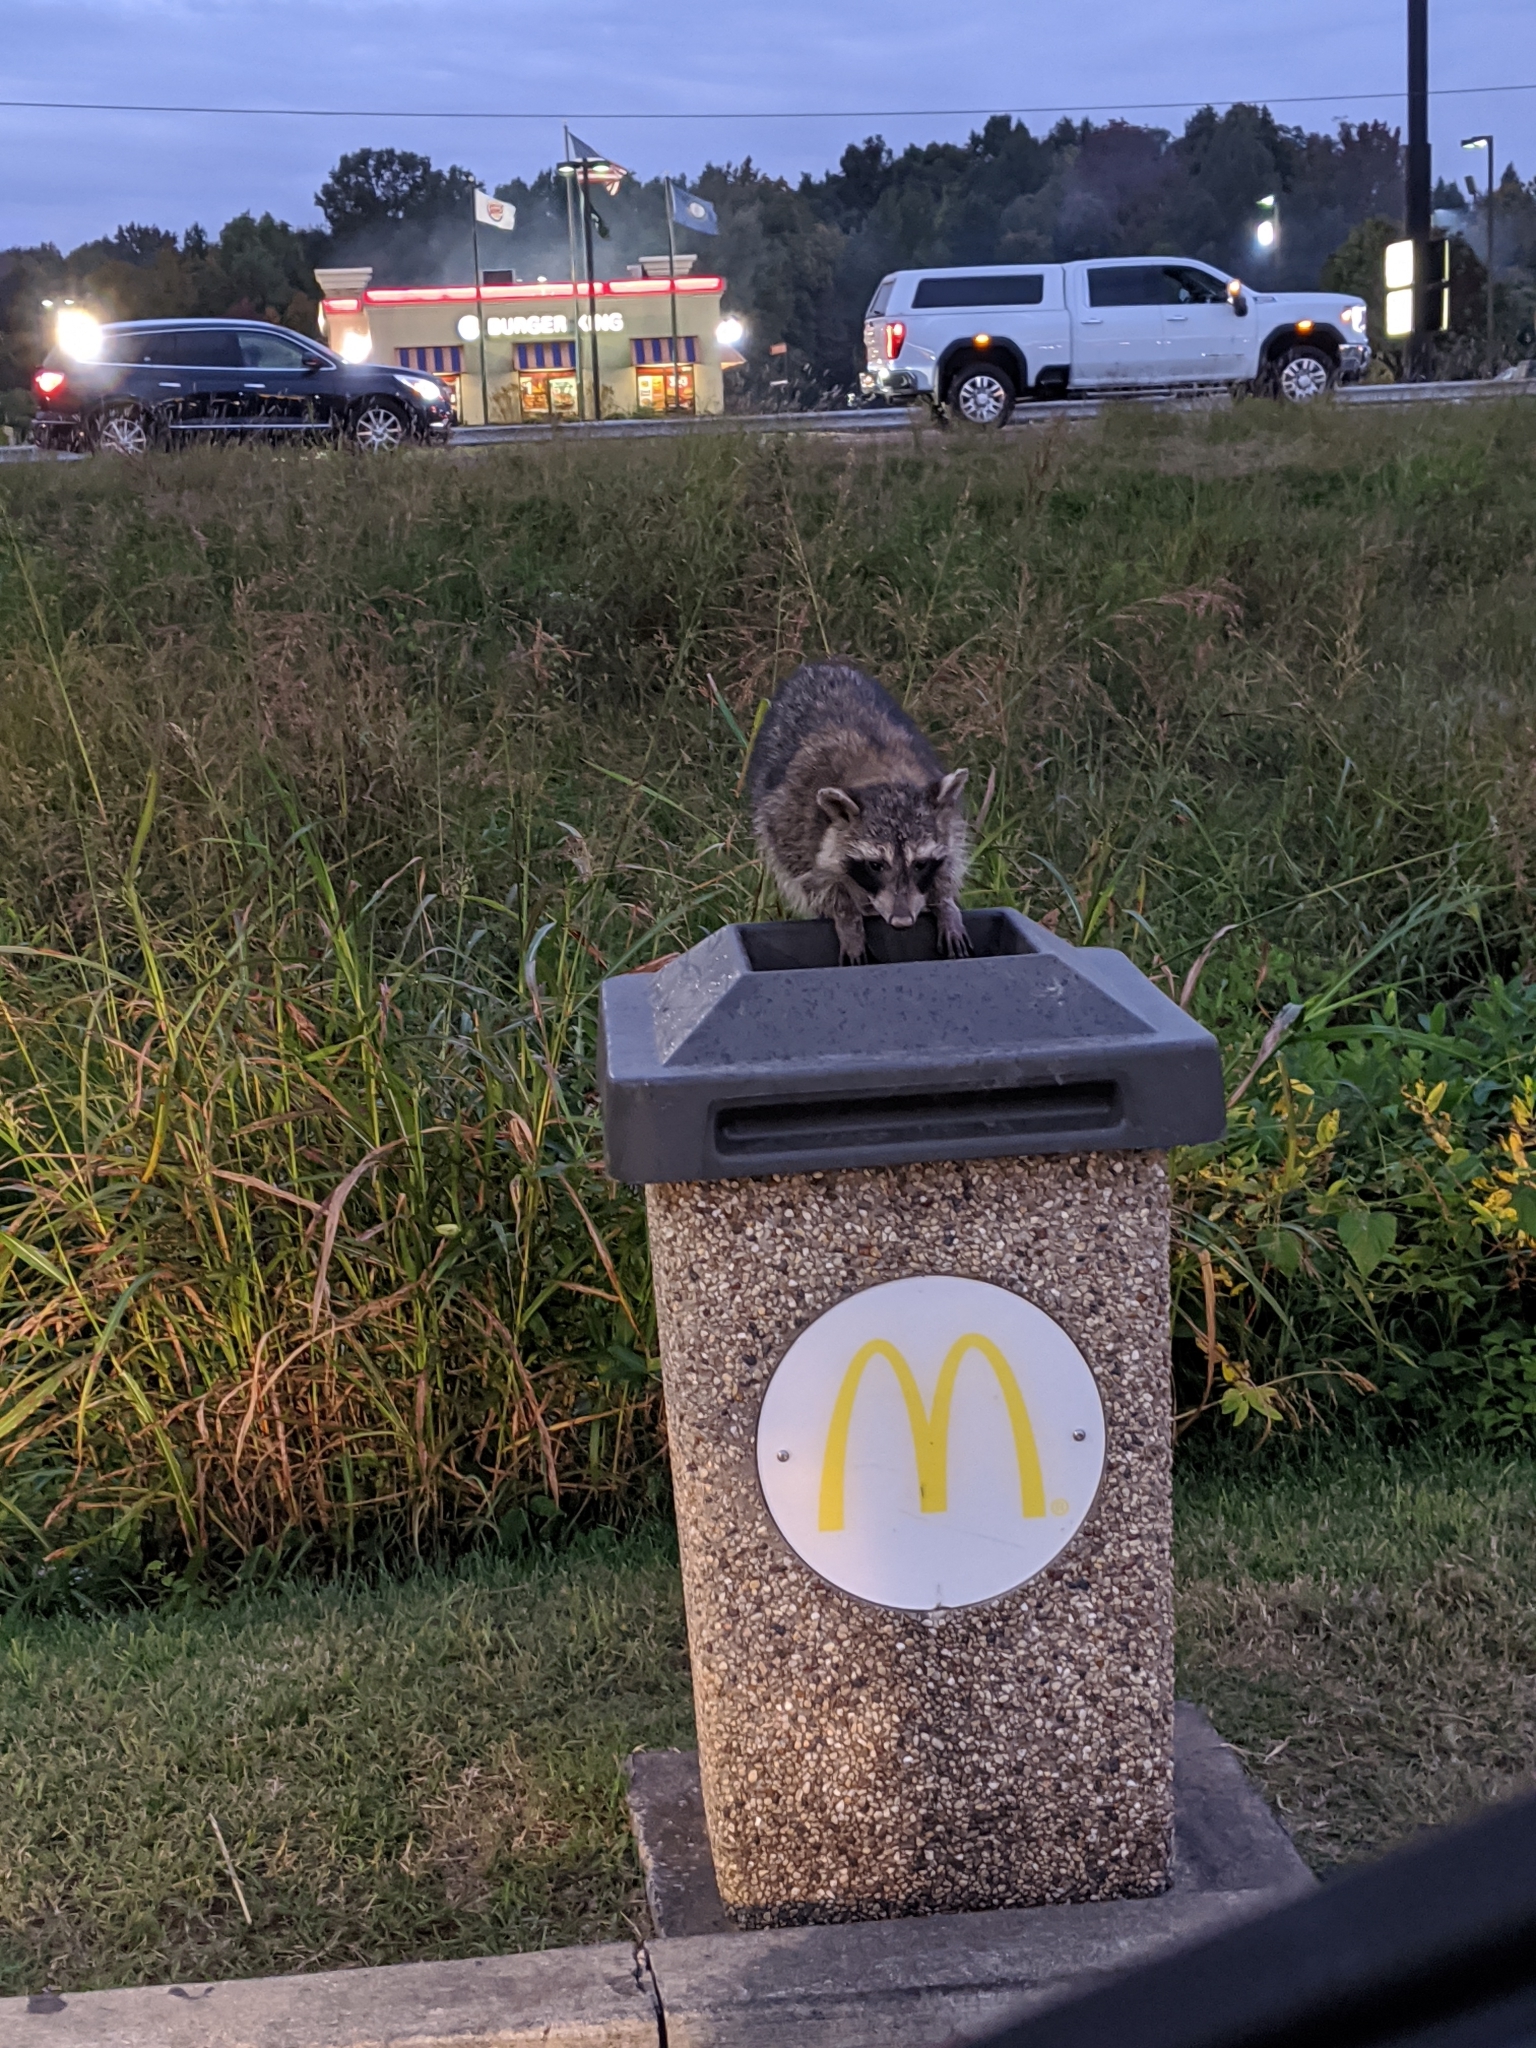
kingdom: Animalia
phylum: Chordata
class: Mammalia
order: Carnivora
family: Procyonidae
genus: Procyon
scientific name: Procyon lotor
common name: Raccoon
